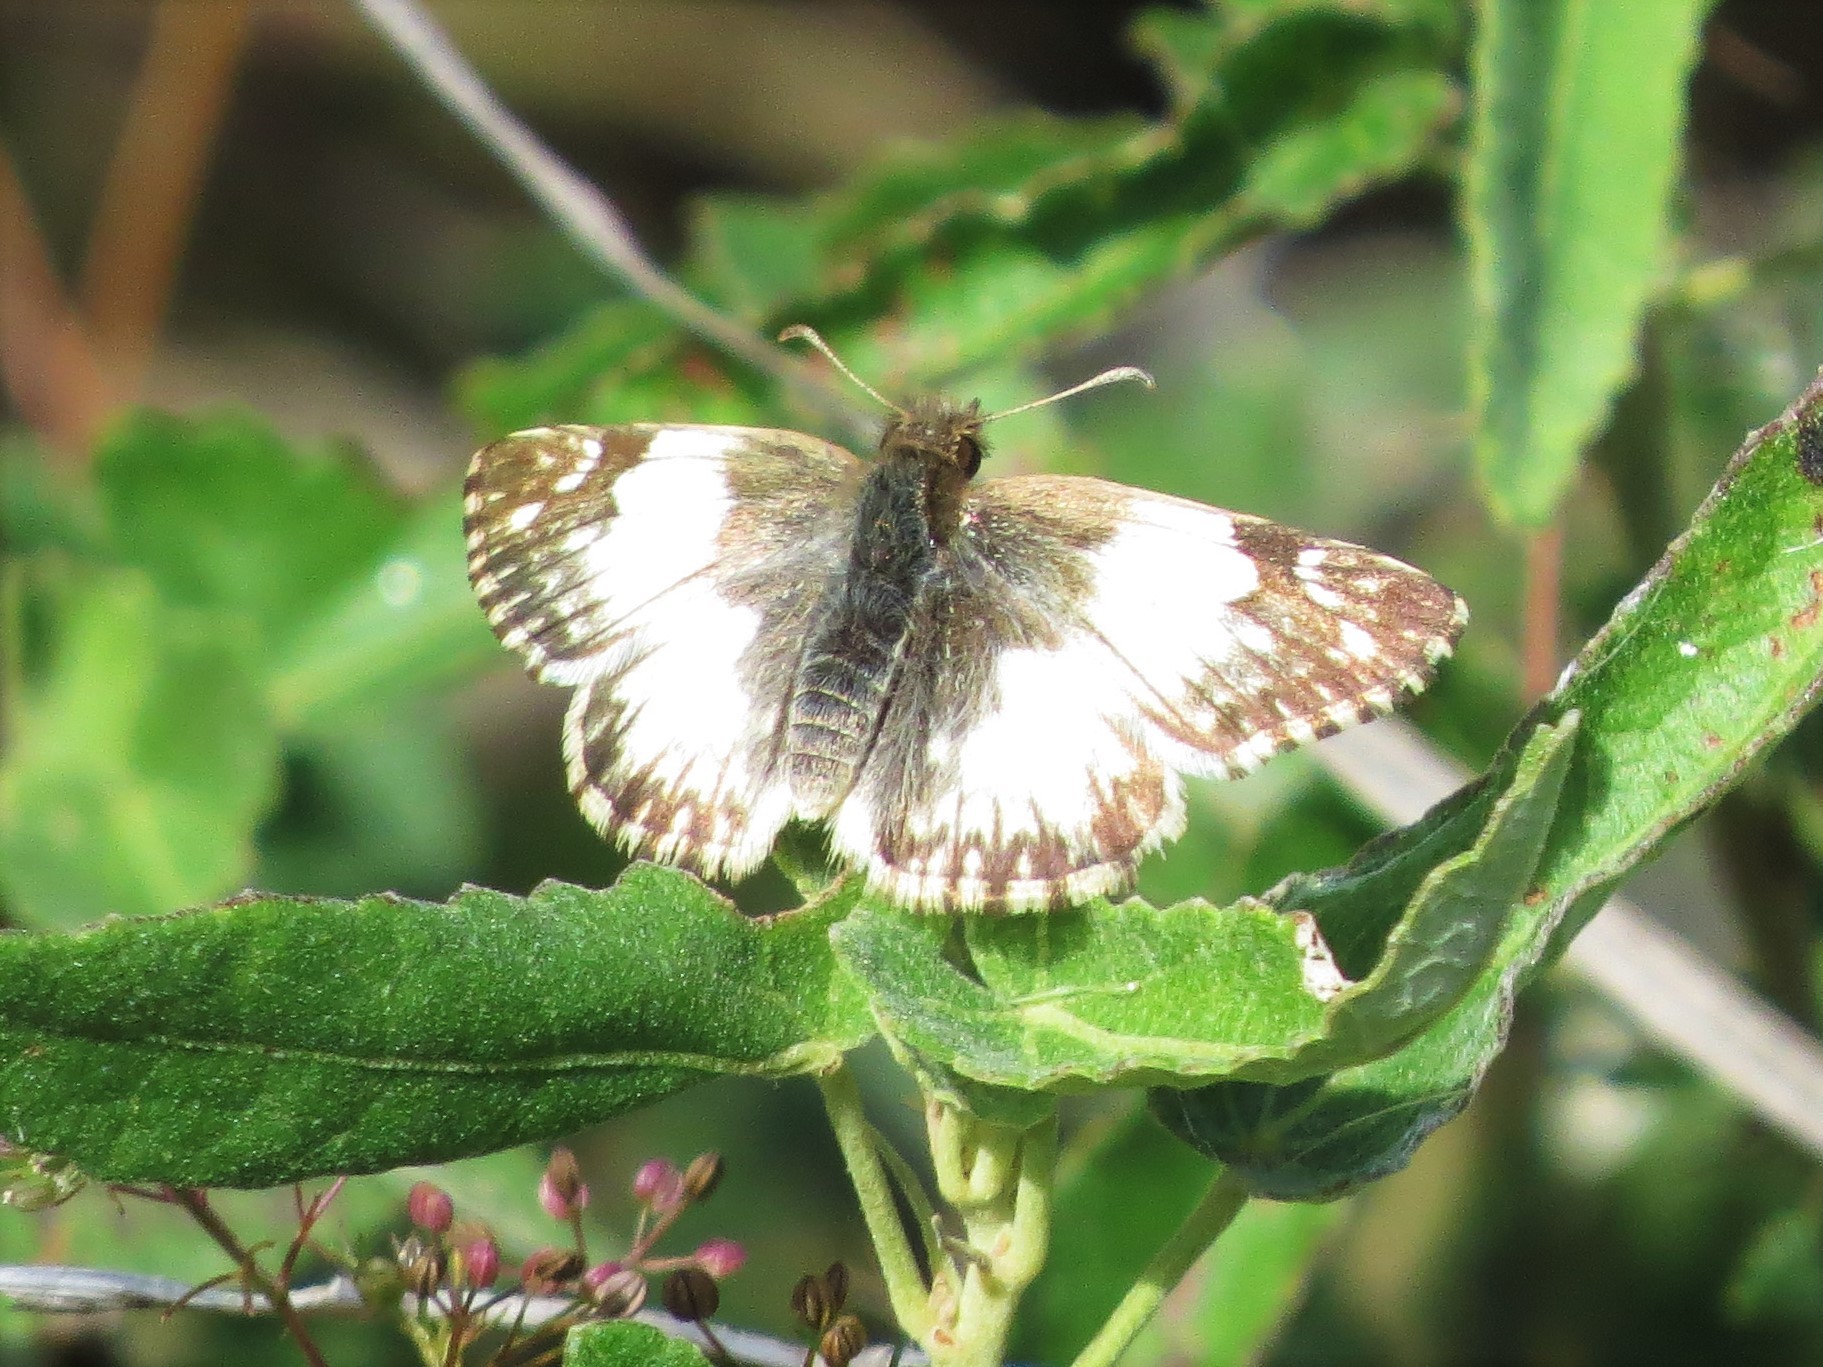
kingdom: Animalia
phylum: Arthropoda
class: Insecta
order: Lepidoptera
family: Hesperiidae
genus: Heliopetes
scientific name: Heliopetes omrina
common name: Stained white-skipper
